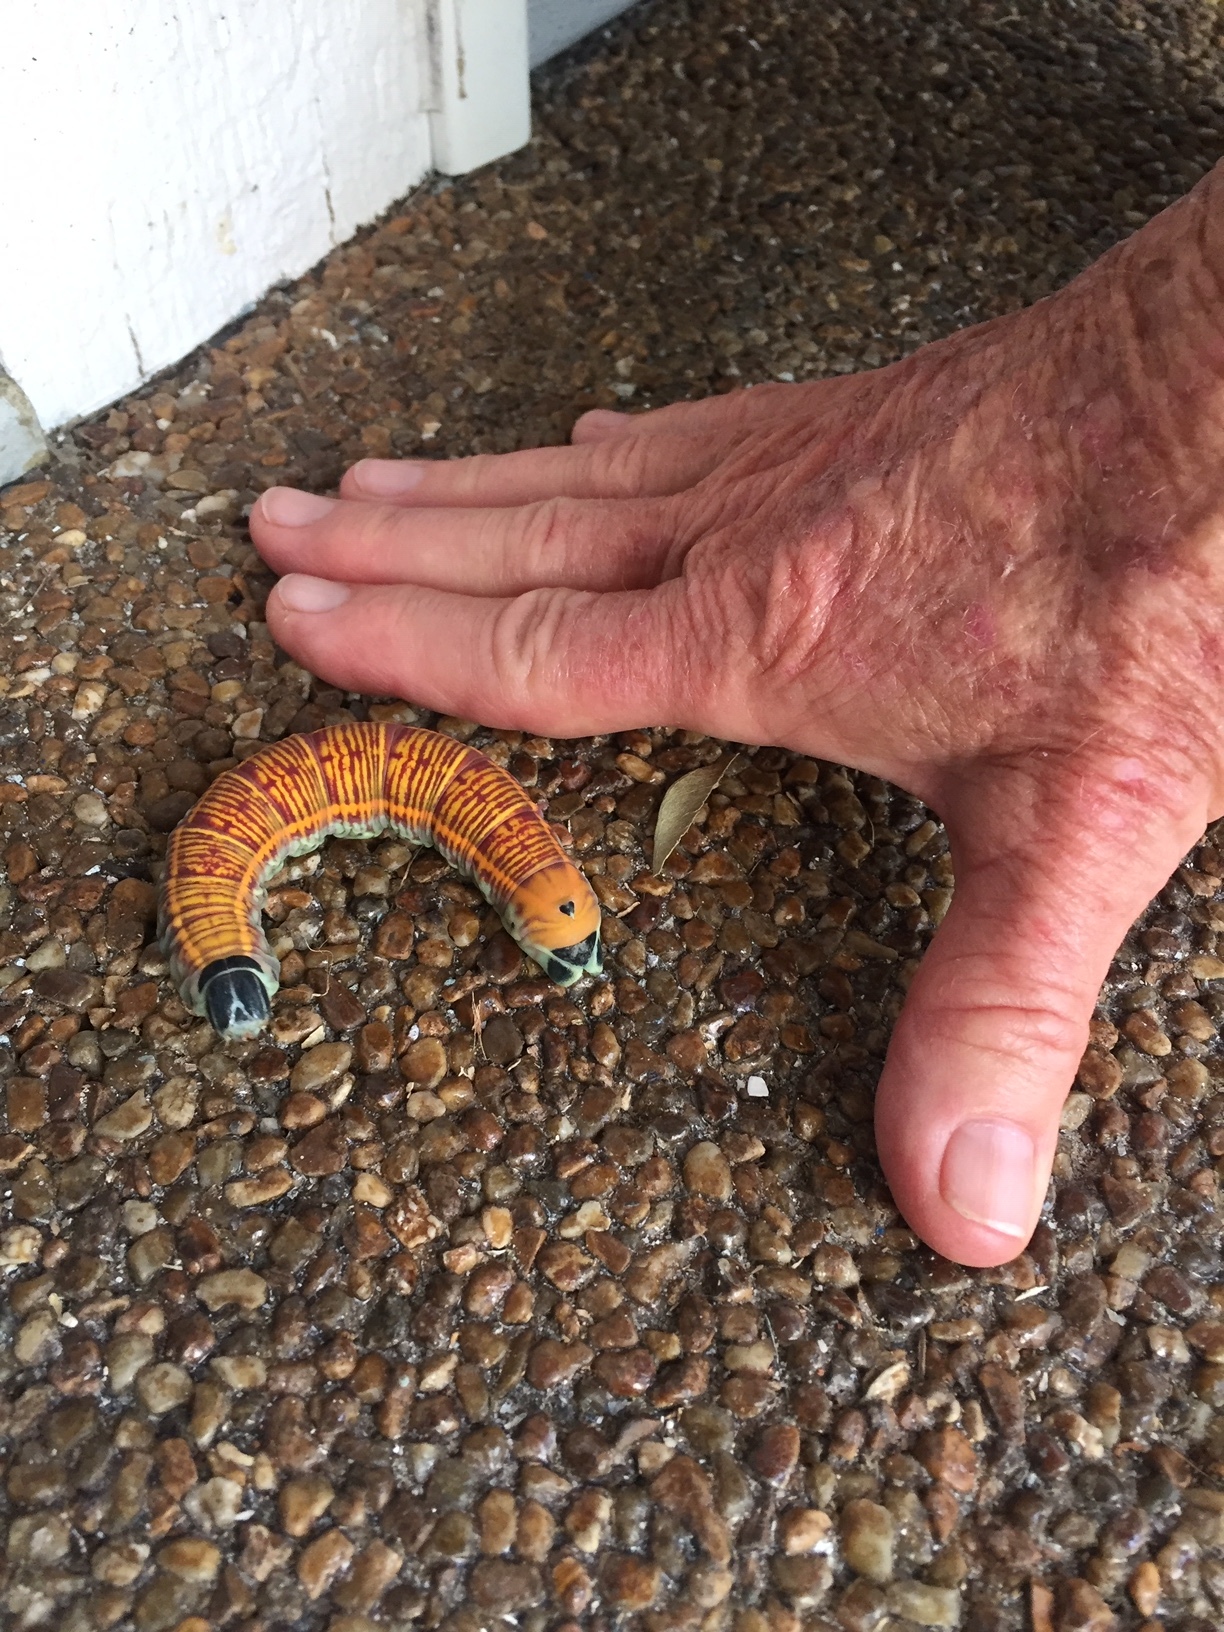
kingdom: Animalia
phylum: Arthropoda
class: Insecta
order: Lepidoptera
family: Sphingidae
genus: Pachylia
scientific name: Pachylia ficus
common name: Fig sphinx
